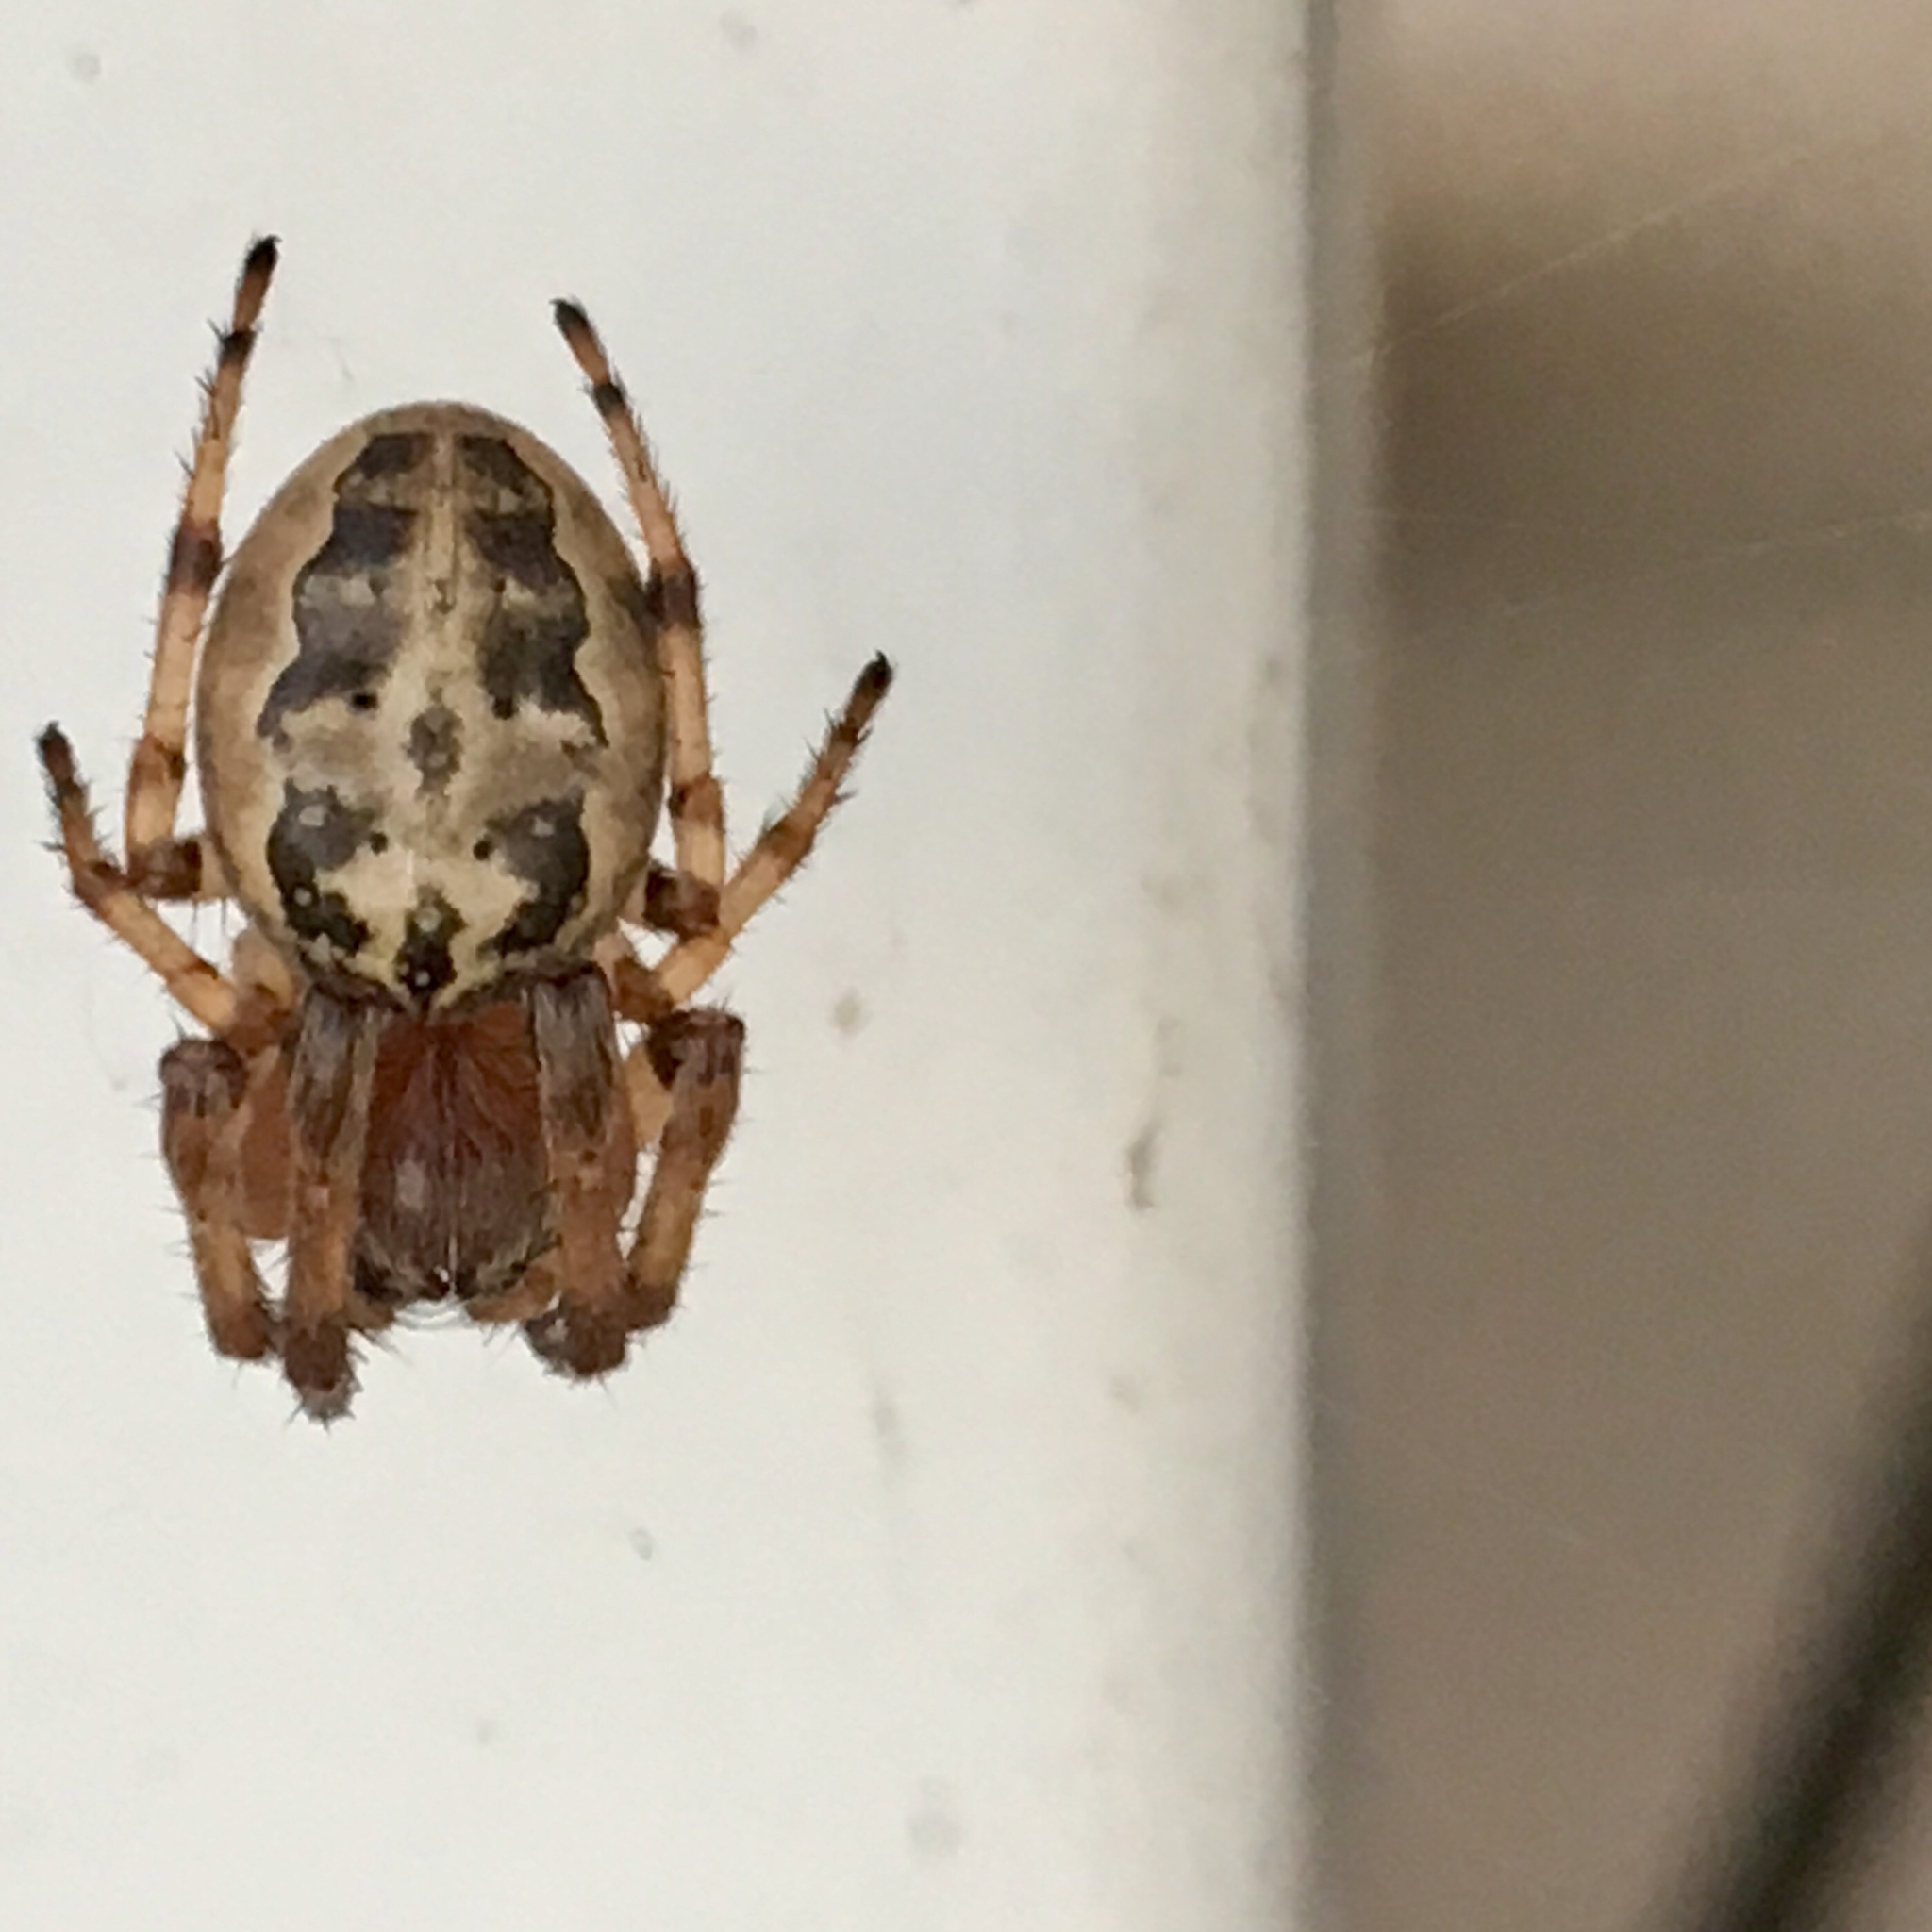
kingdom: Animalia
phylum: Arthropoda
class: Arachnida
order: Araneae
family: Araneidae
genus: Larinioides
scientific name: Larinioides cornutus
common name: Furrow orbweaver
